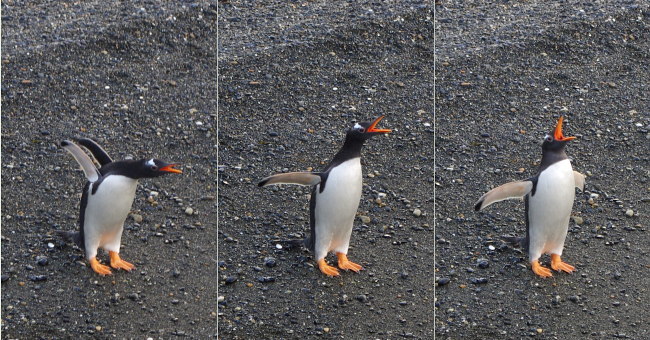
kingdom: Animalia
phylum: Chordata
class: Aves
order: Sphenisciformes
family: Spheniscidae
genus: Pygoscelis
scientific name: Pygoscelis papua
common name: Gentoo penguin
